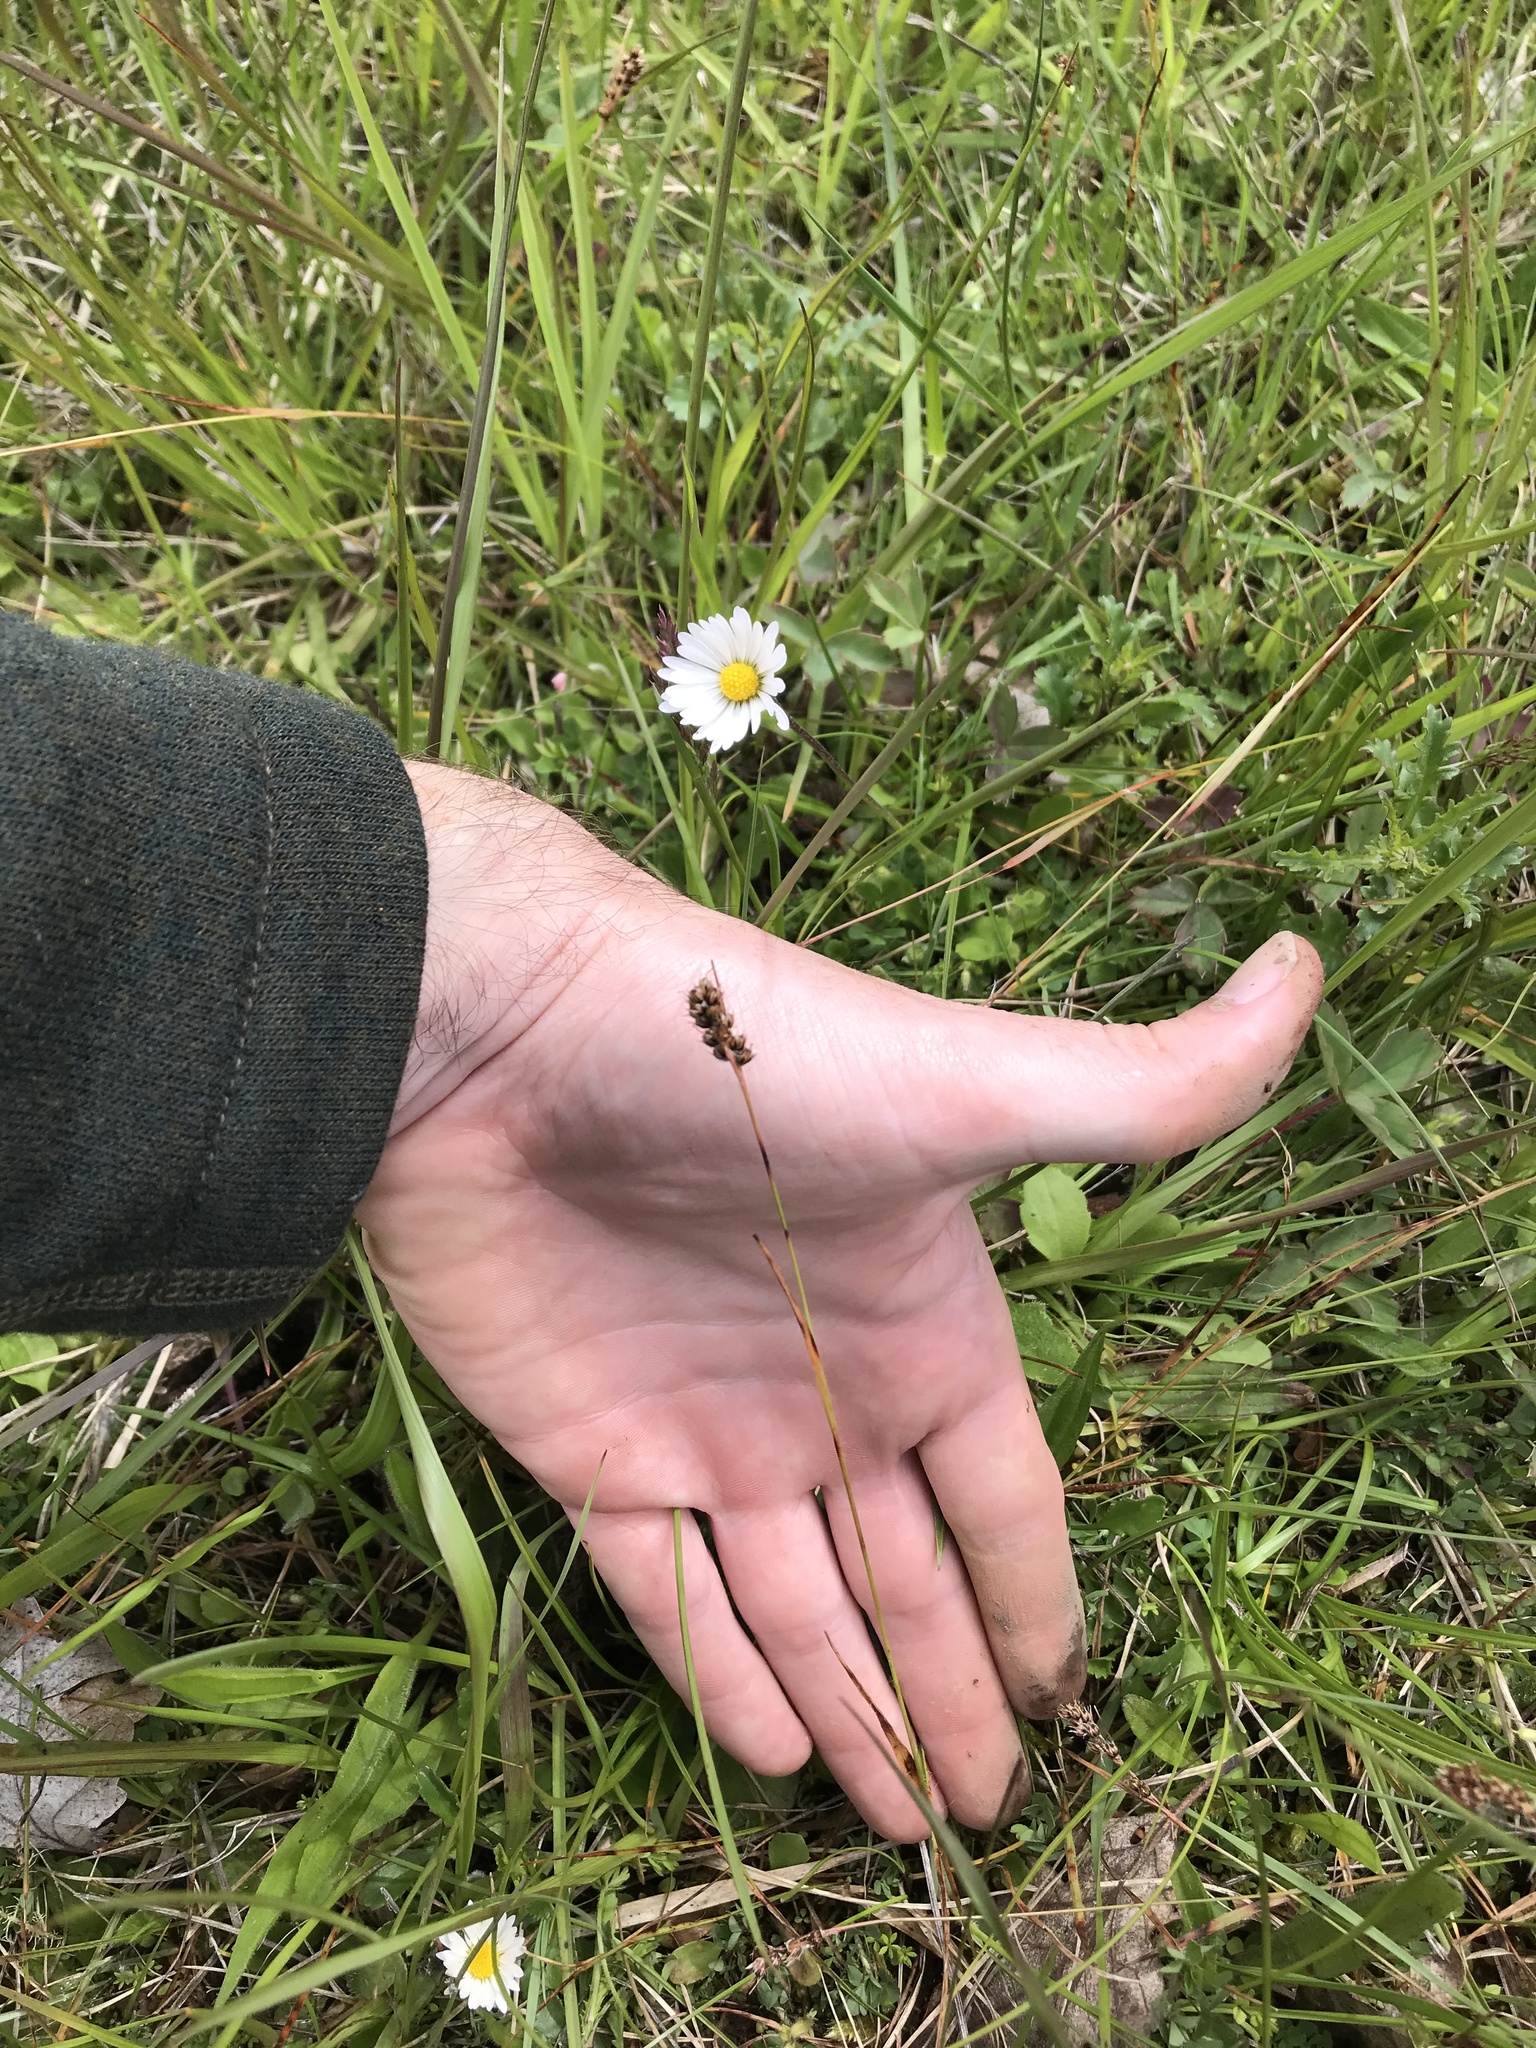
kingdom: Plantae
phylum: Tracheophyta
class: Liliopsida
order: Poales
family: Juncaceae
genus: Luzula
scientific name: Luzula macrantha
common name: Large-anthered woodrush
